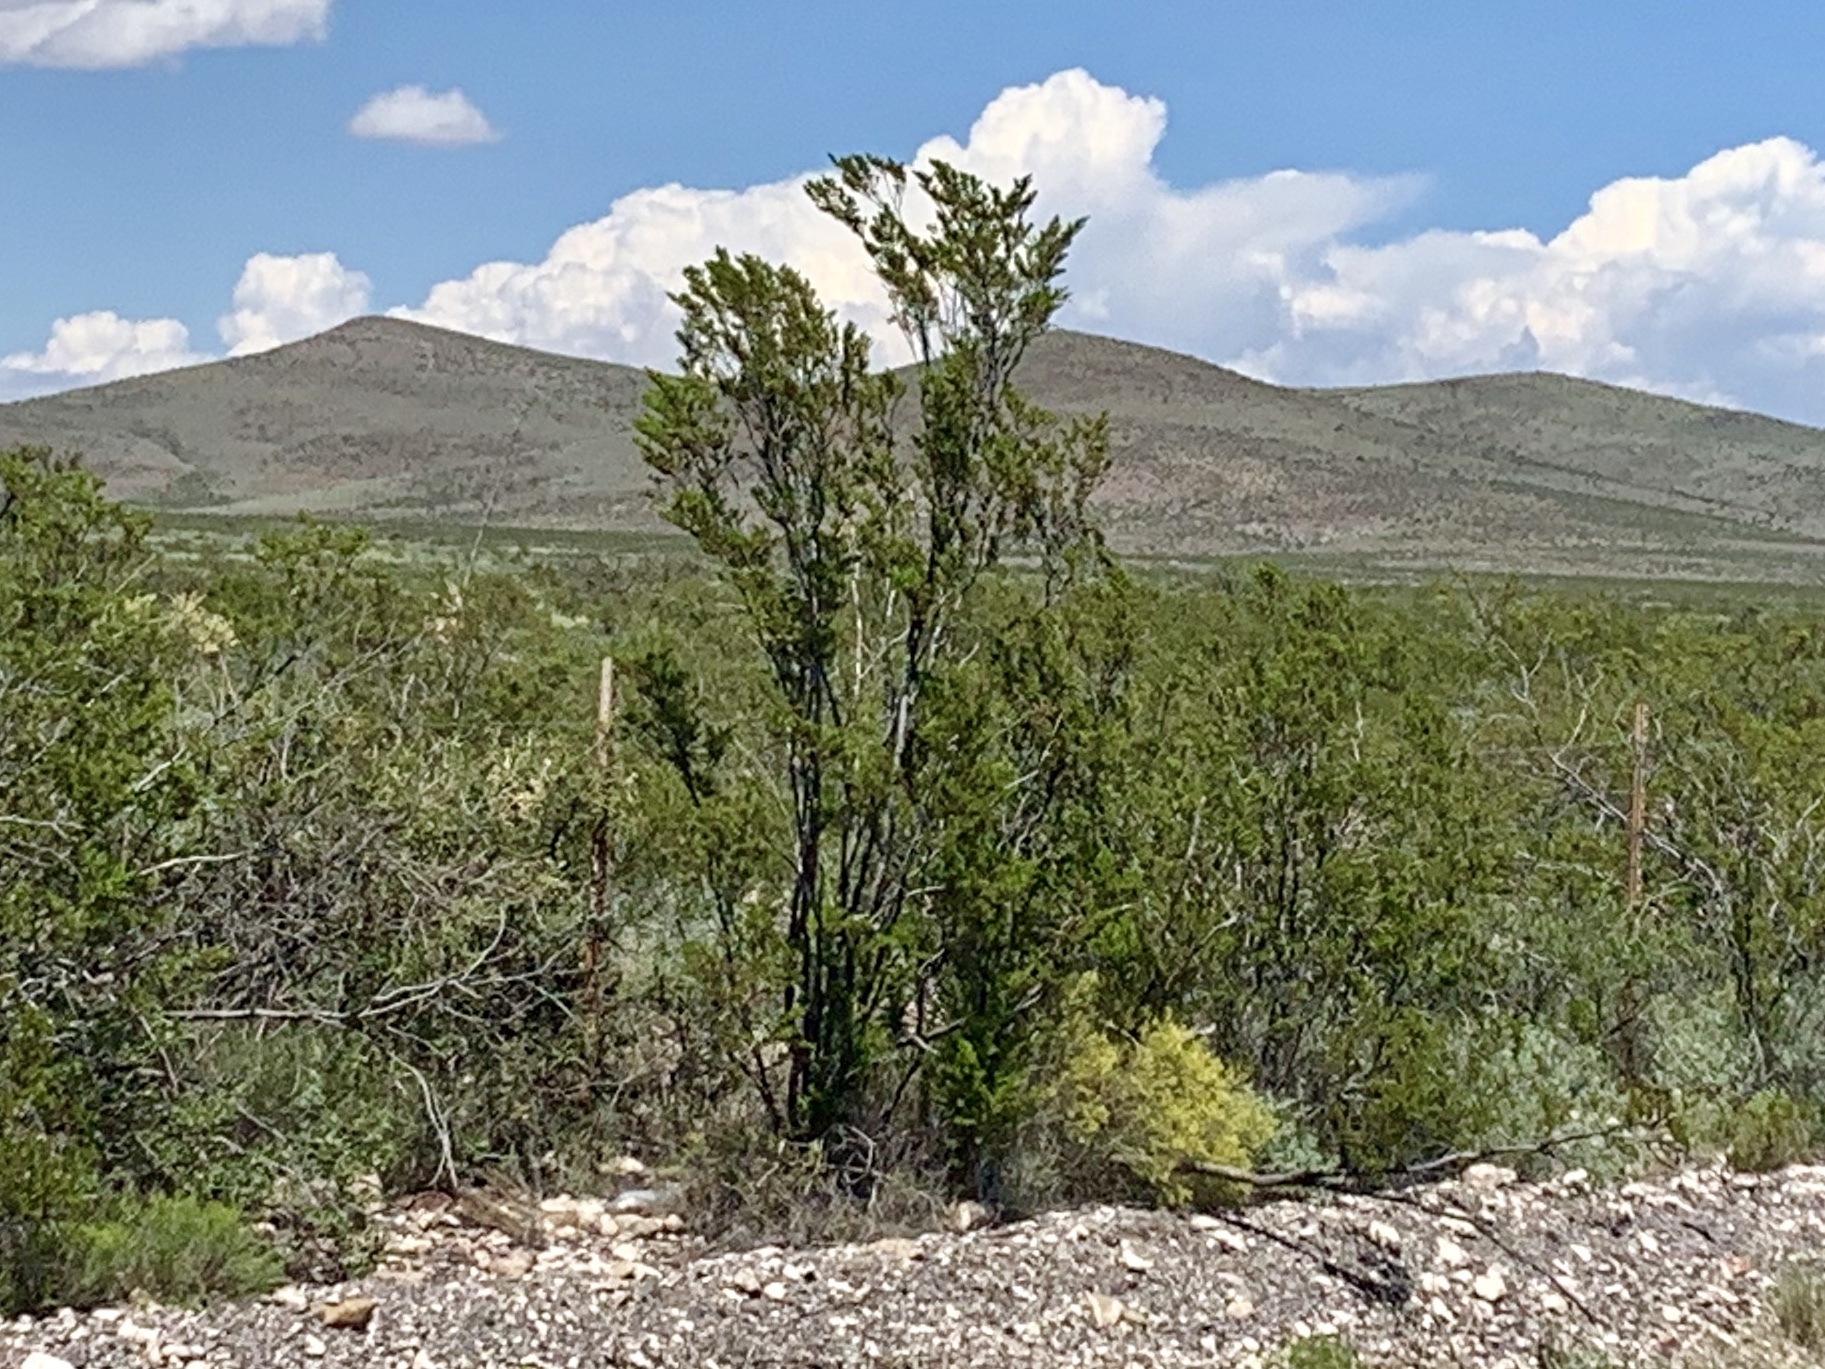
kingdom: Plantae
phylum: Tracheophyta
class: Magnoliopsida
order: Zygophyllales
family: Zygophyllaceae
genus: Larrea
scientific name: Larrea tridentata
